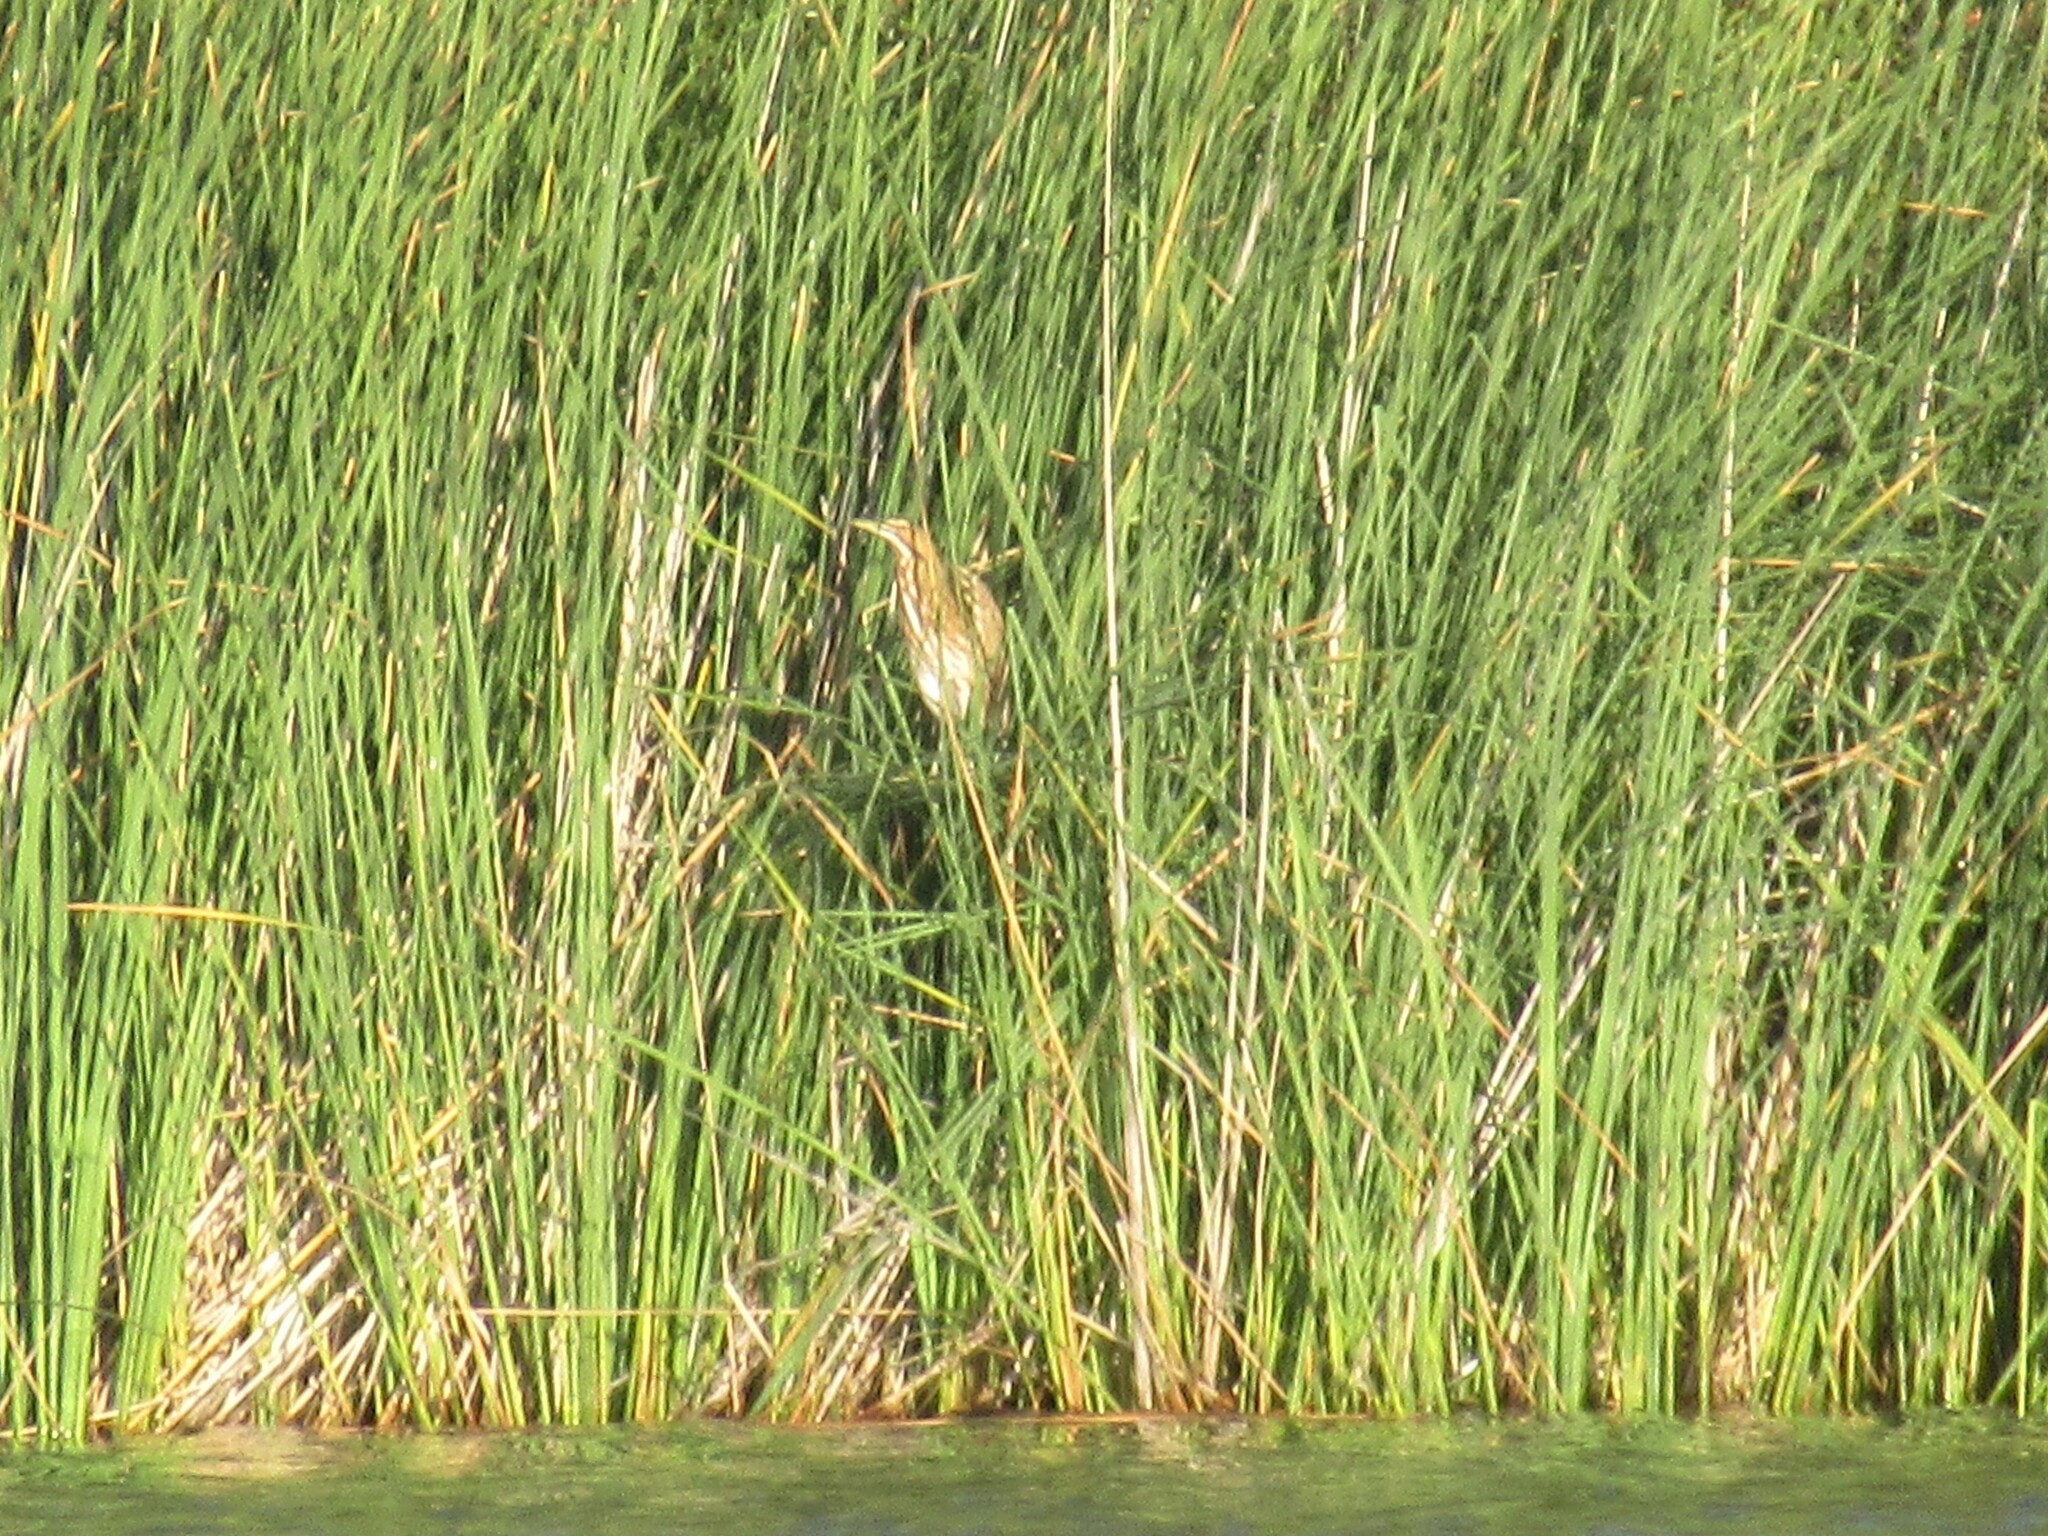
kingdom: Animalia
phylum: Chordata
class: Aves
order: Pelecaniformes
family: Ardeidae
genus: Botaurus
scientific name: Botaurus lentiginosus
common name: American bittern
